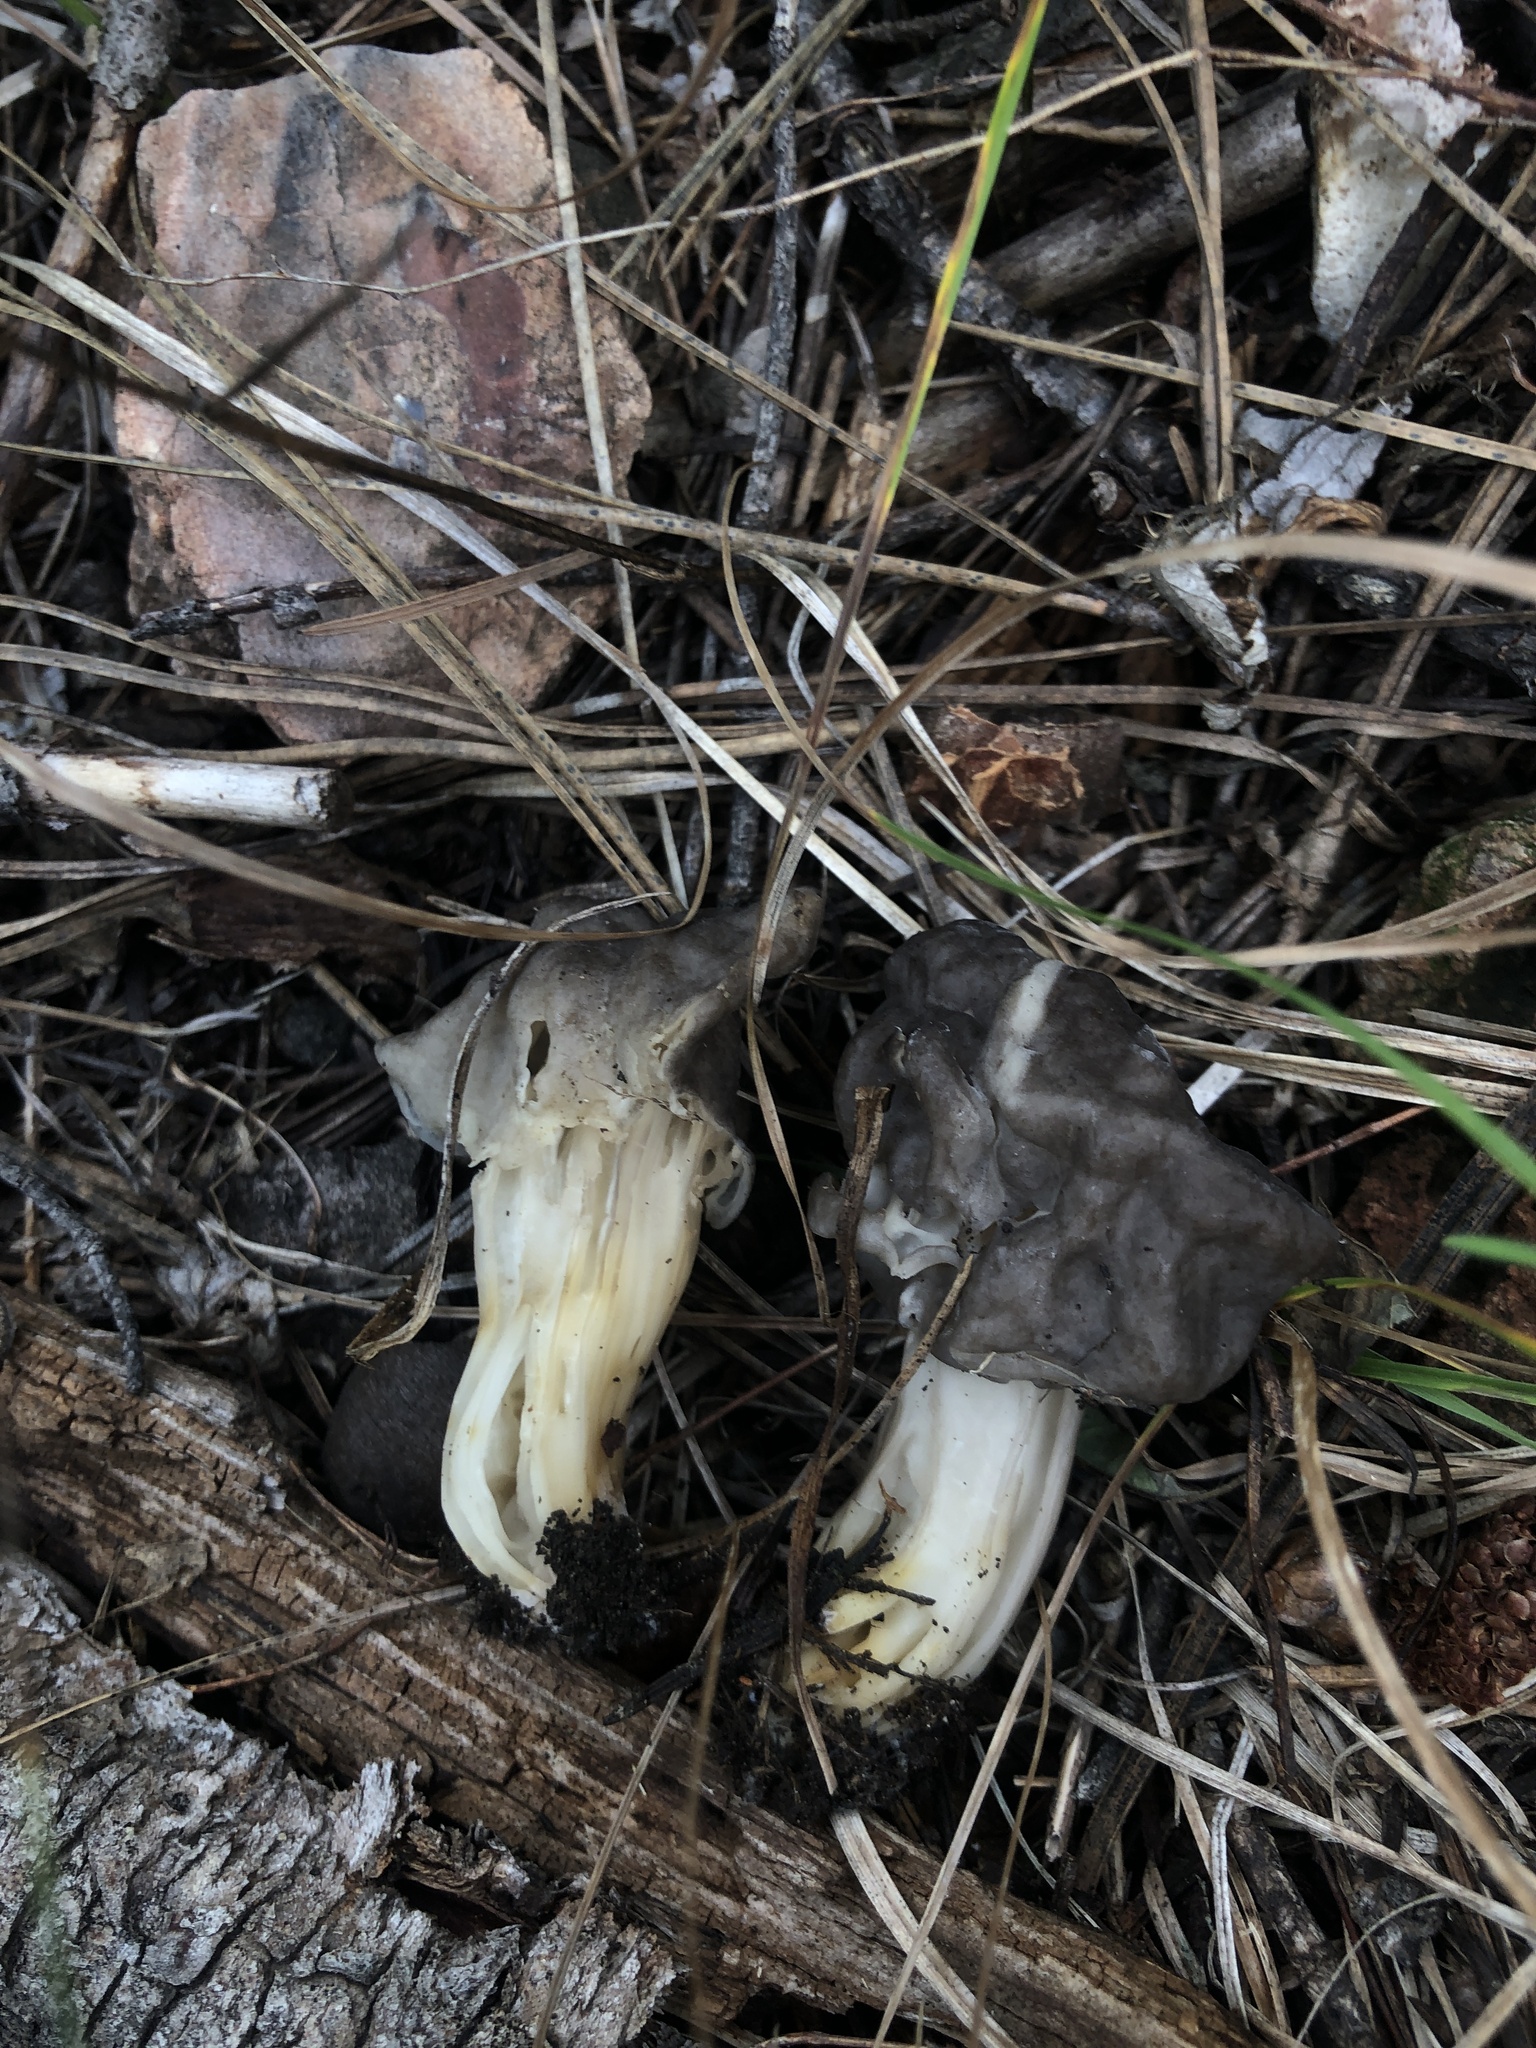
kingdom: Fungi
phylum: Ascomycota
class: Pezizomycetes
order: Pezizales
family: Helvellaceae
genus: Helvella
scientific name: Helvella vespertina
